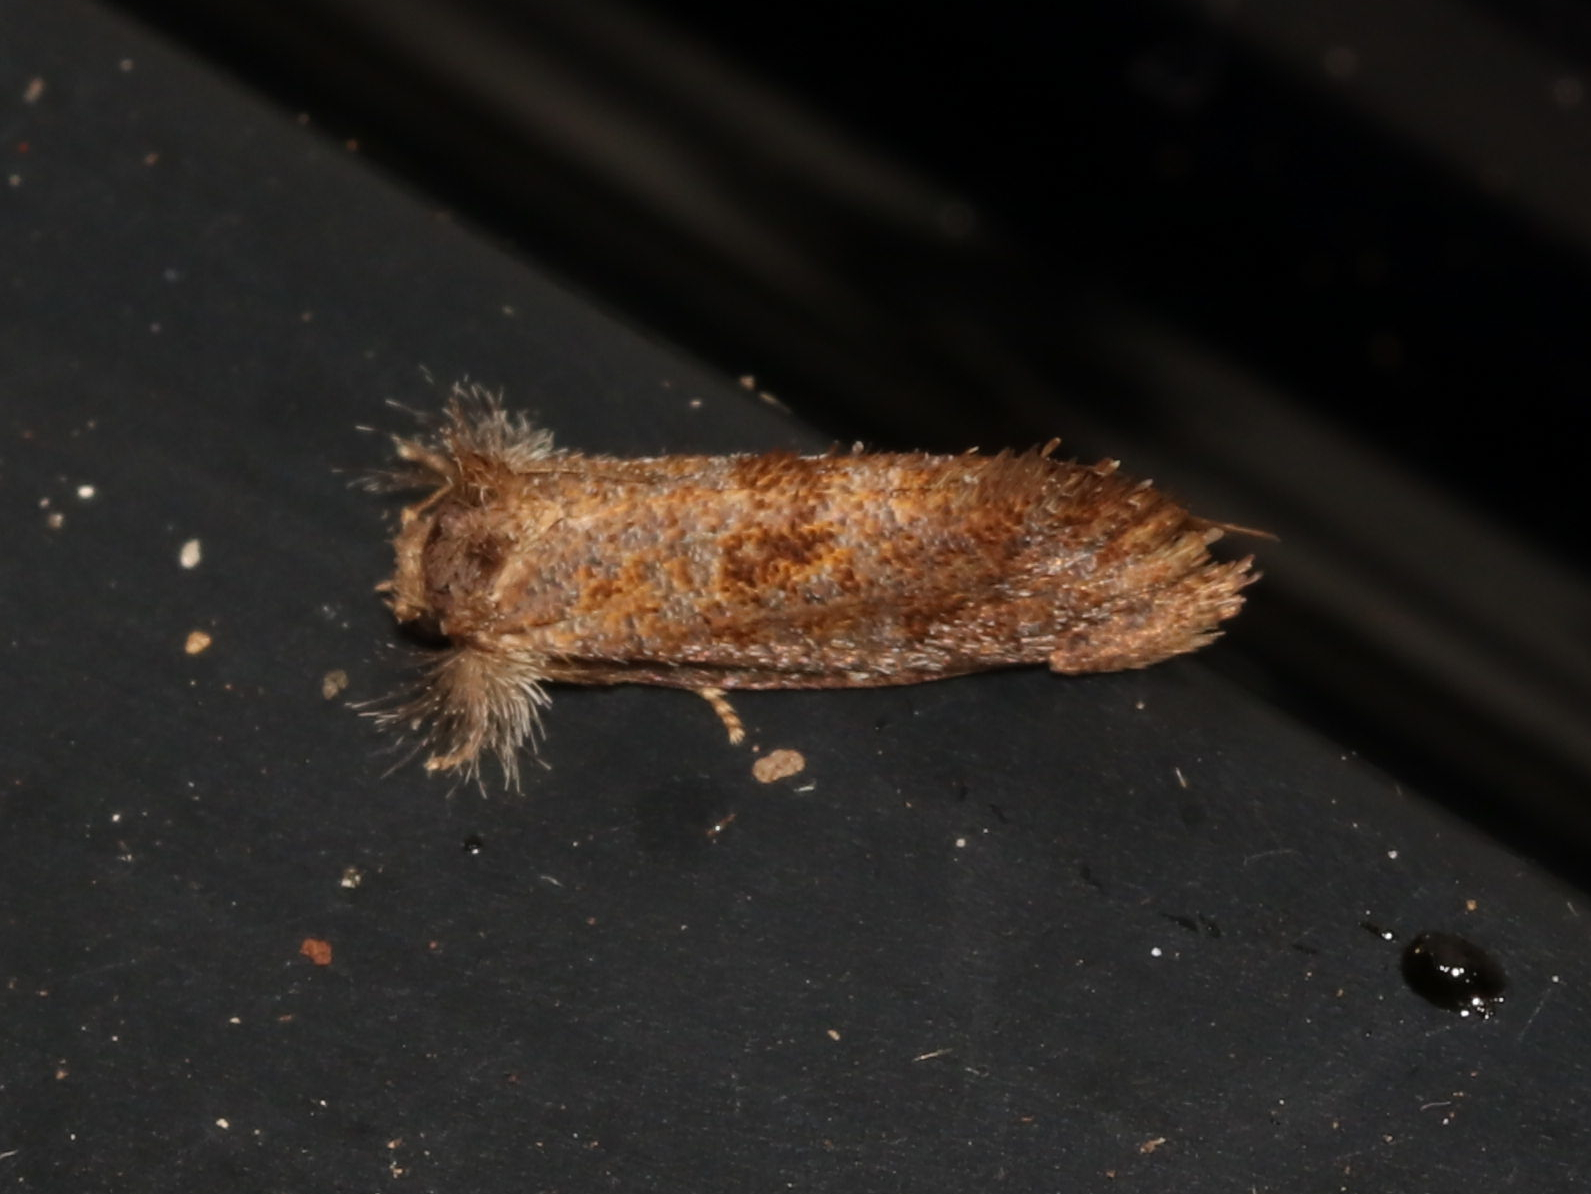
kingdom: Animalia
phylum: Arthropoda
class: Insecta
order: Lepidoptera
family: Tineidae
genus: Acrolophus
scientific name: Acrolophus panamae
